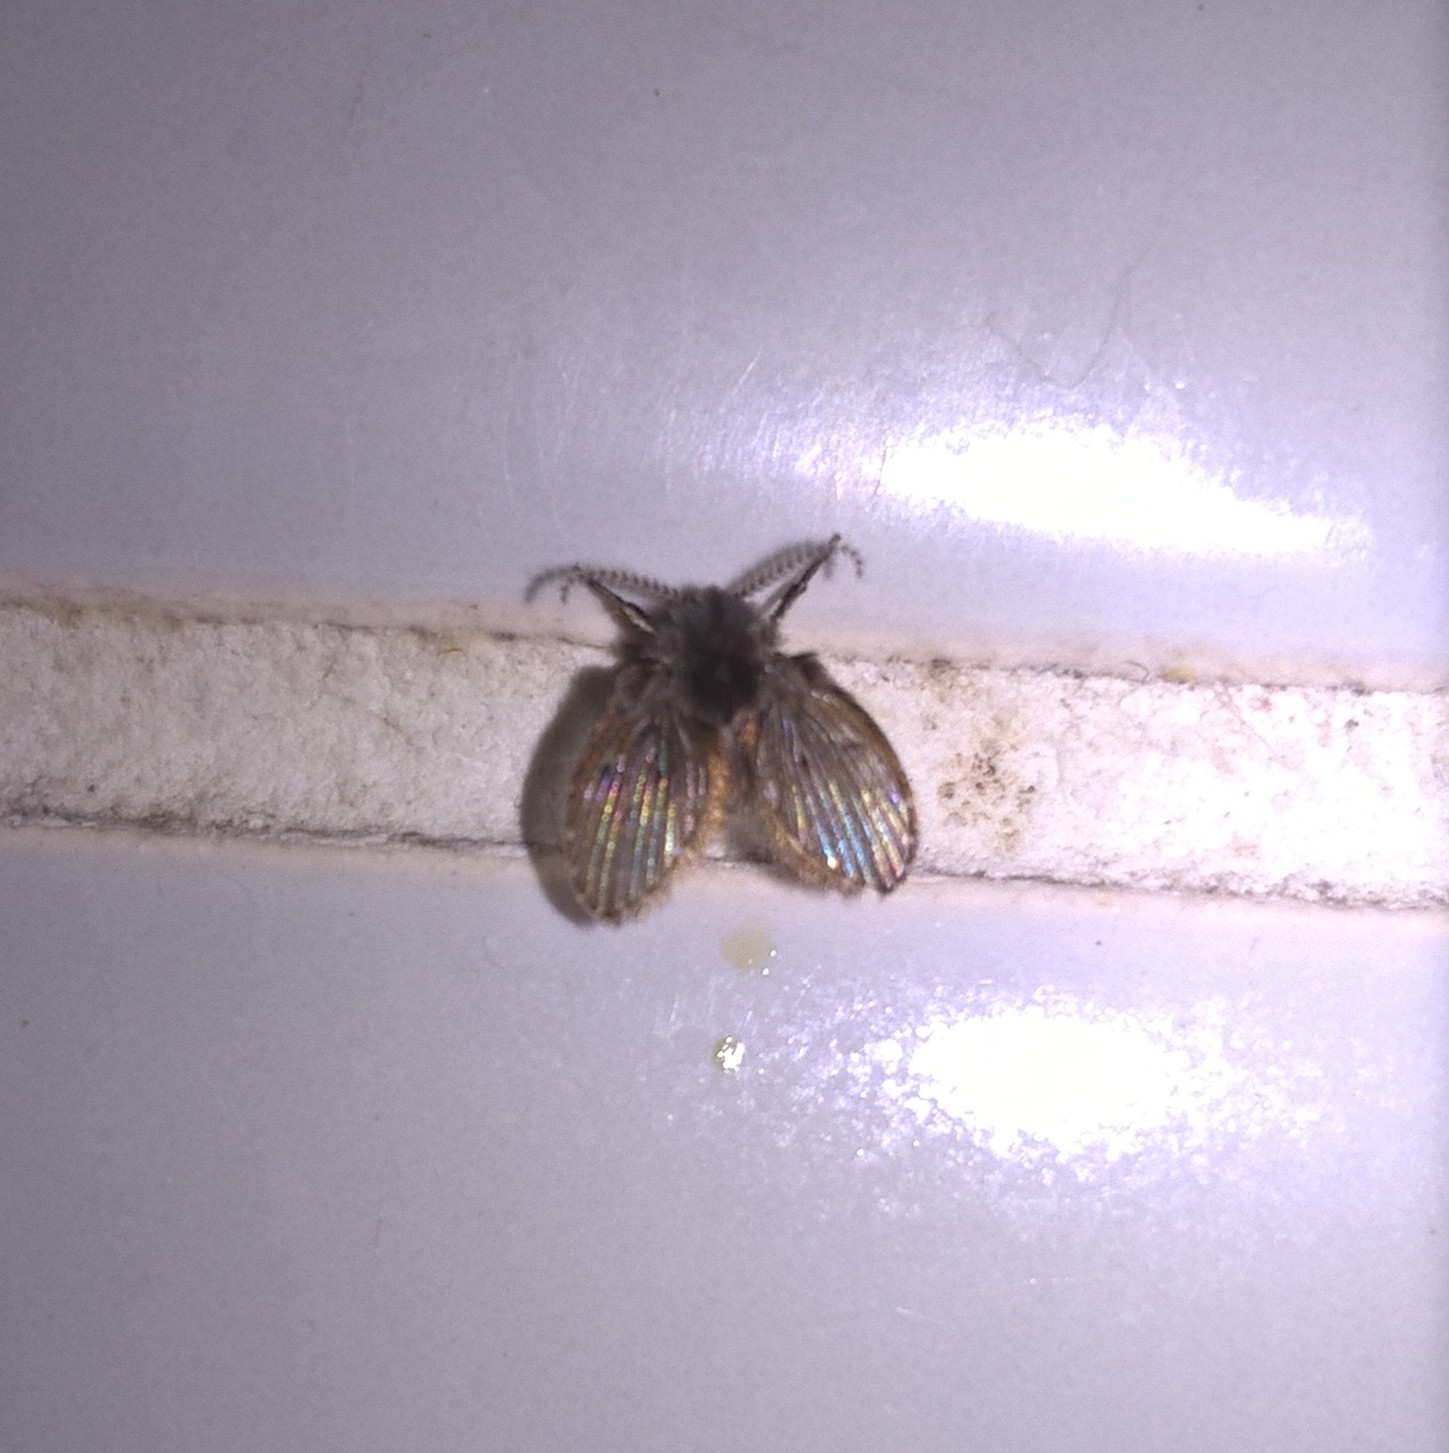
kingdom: Animalia
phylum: Arthropoda
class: Insecta
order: Diptera
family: Psychodidae
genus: Clogmia
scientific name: Clogmia albipunctatus
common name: White-spotted moth fly
